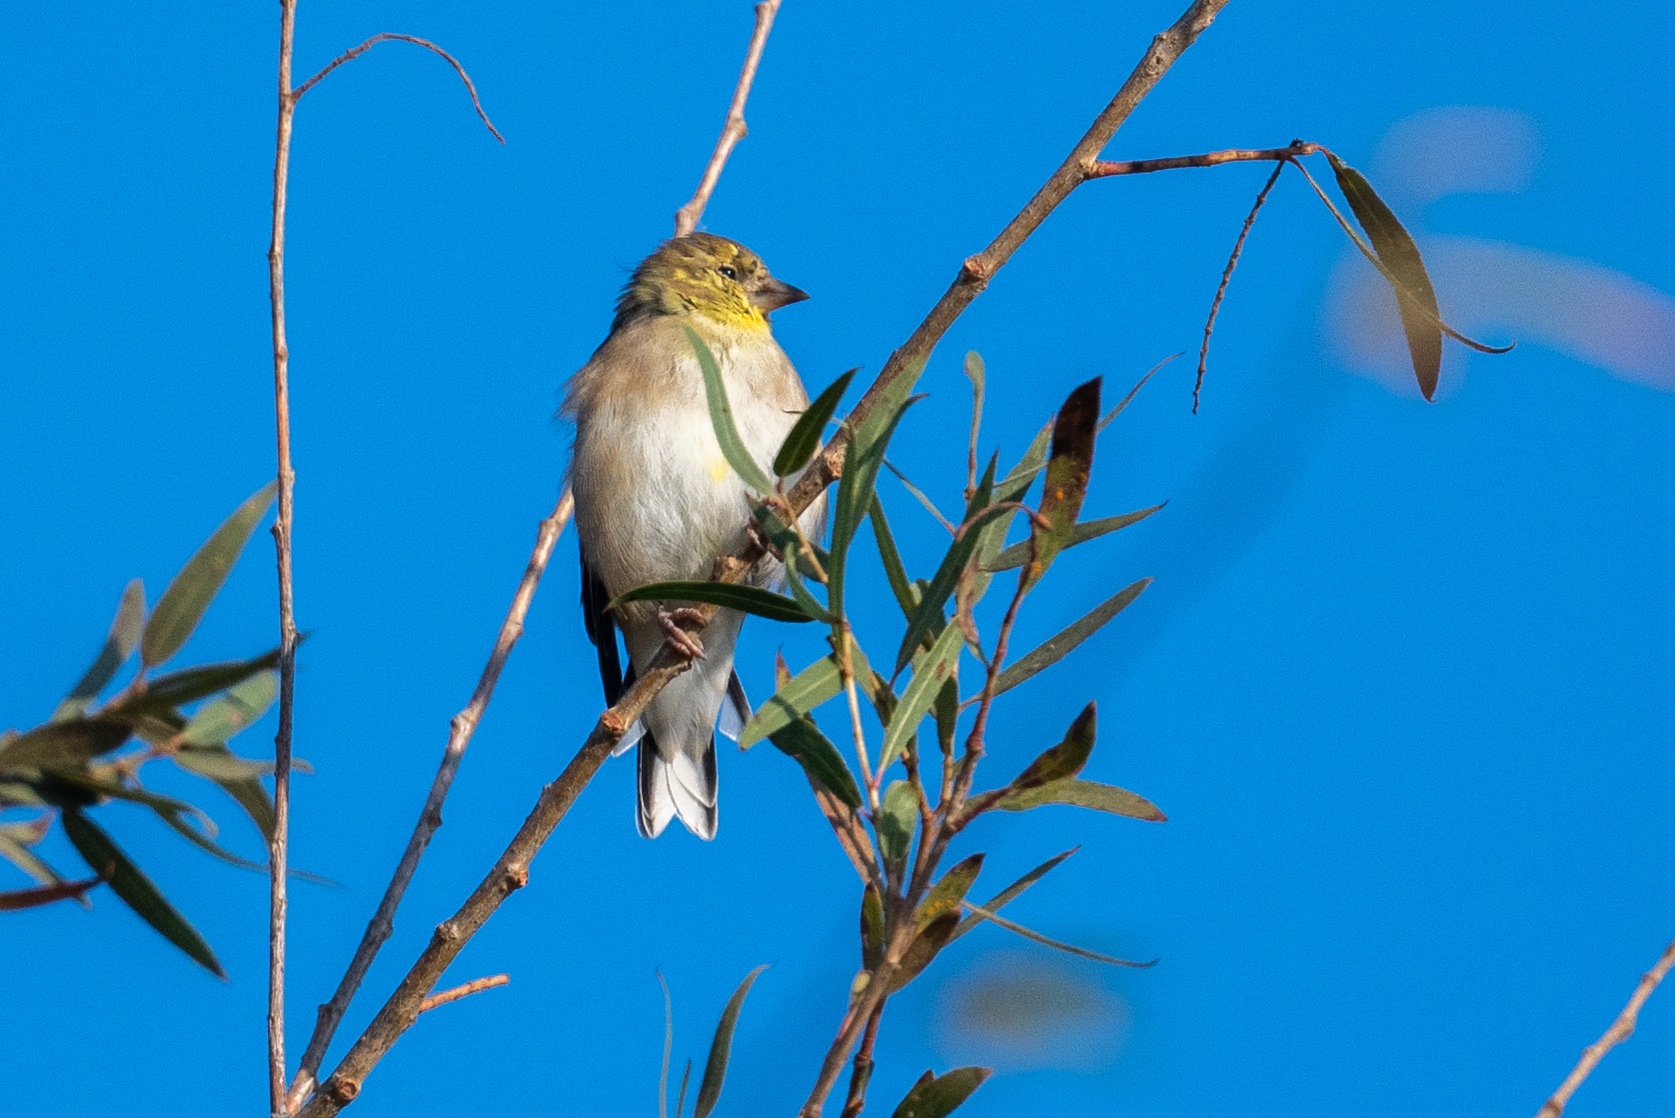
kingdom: Animalia
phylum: Chordata
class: Aves
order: Passeriformes
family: Fringillidae
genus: Spinus
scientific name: Spinus tristis
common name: American goldfinch
